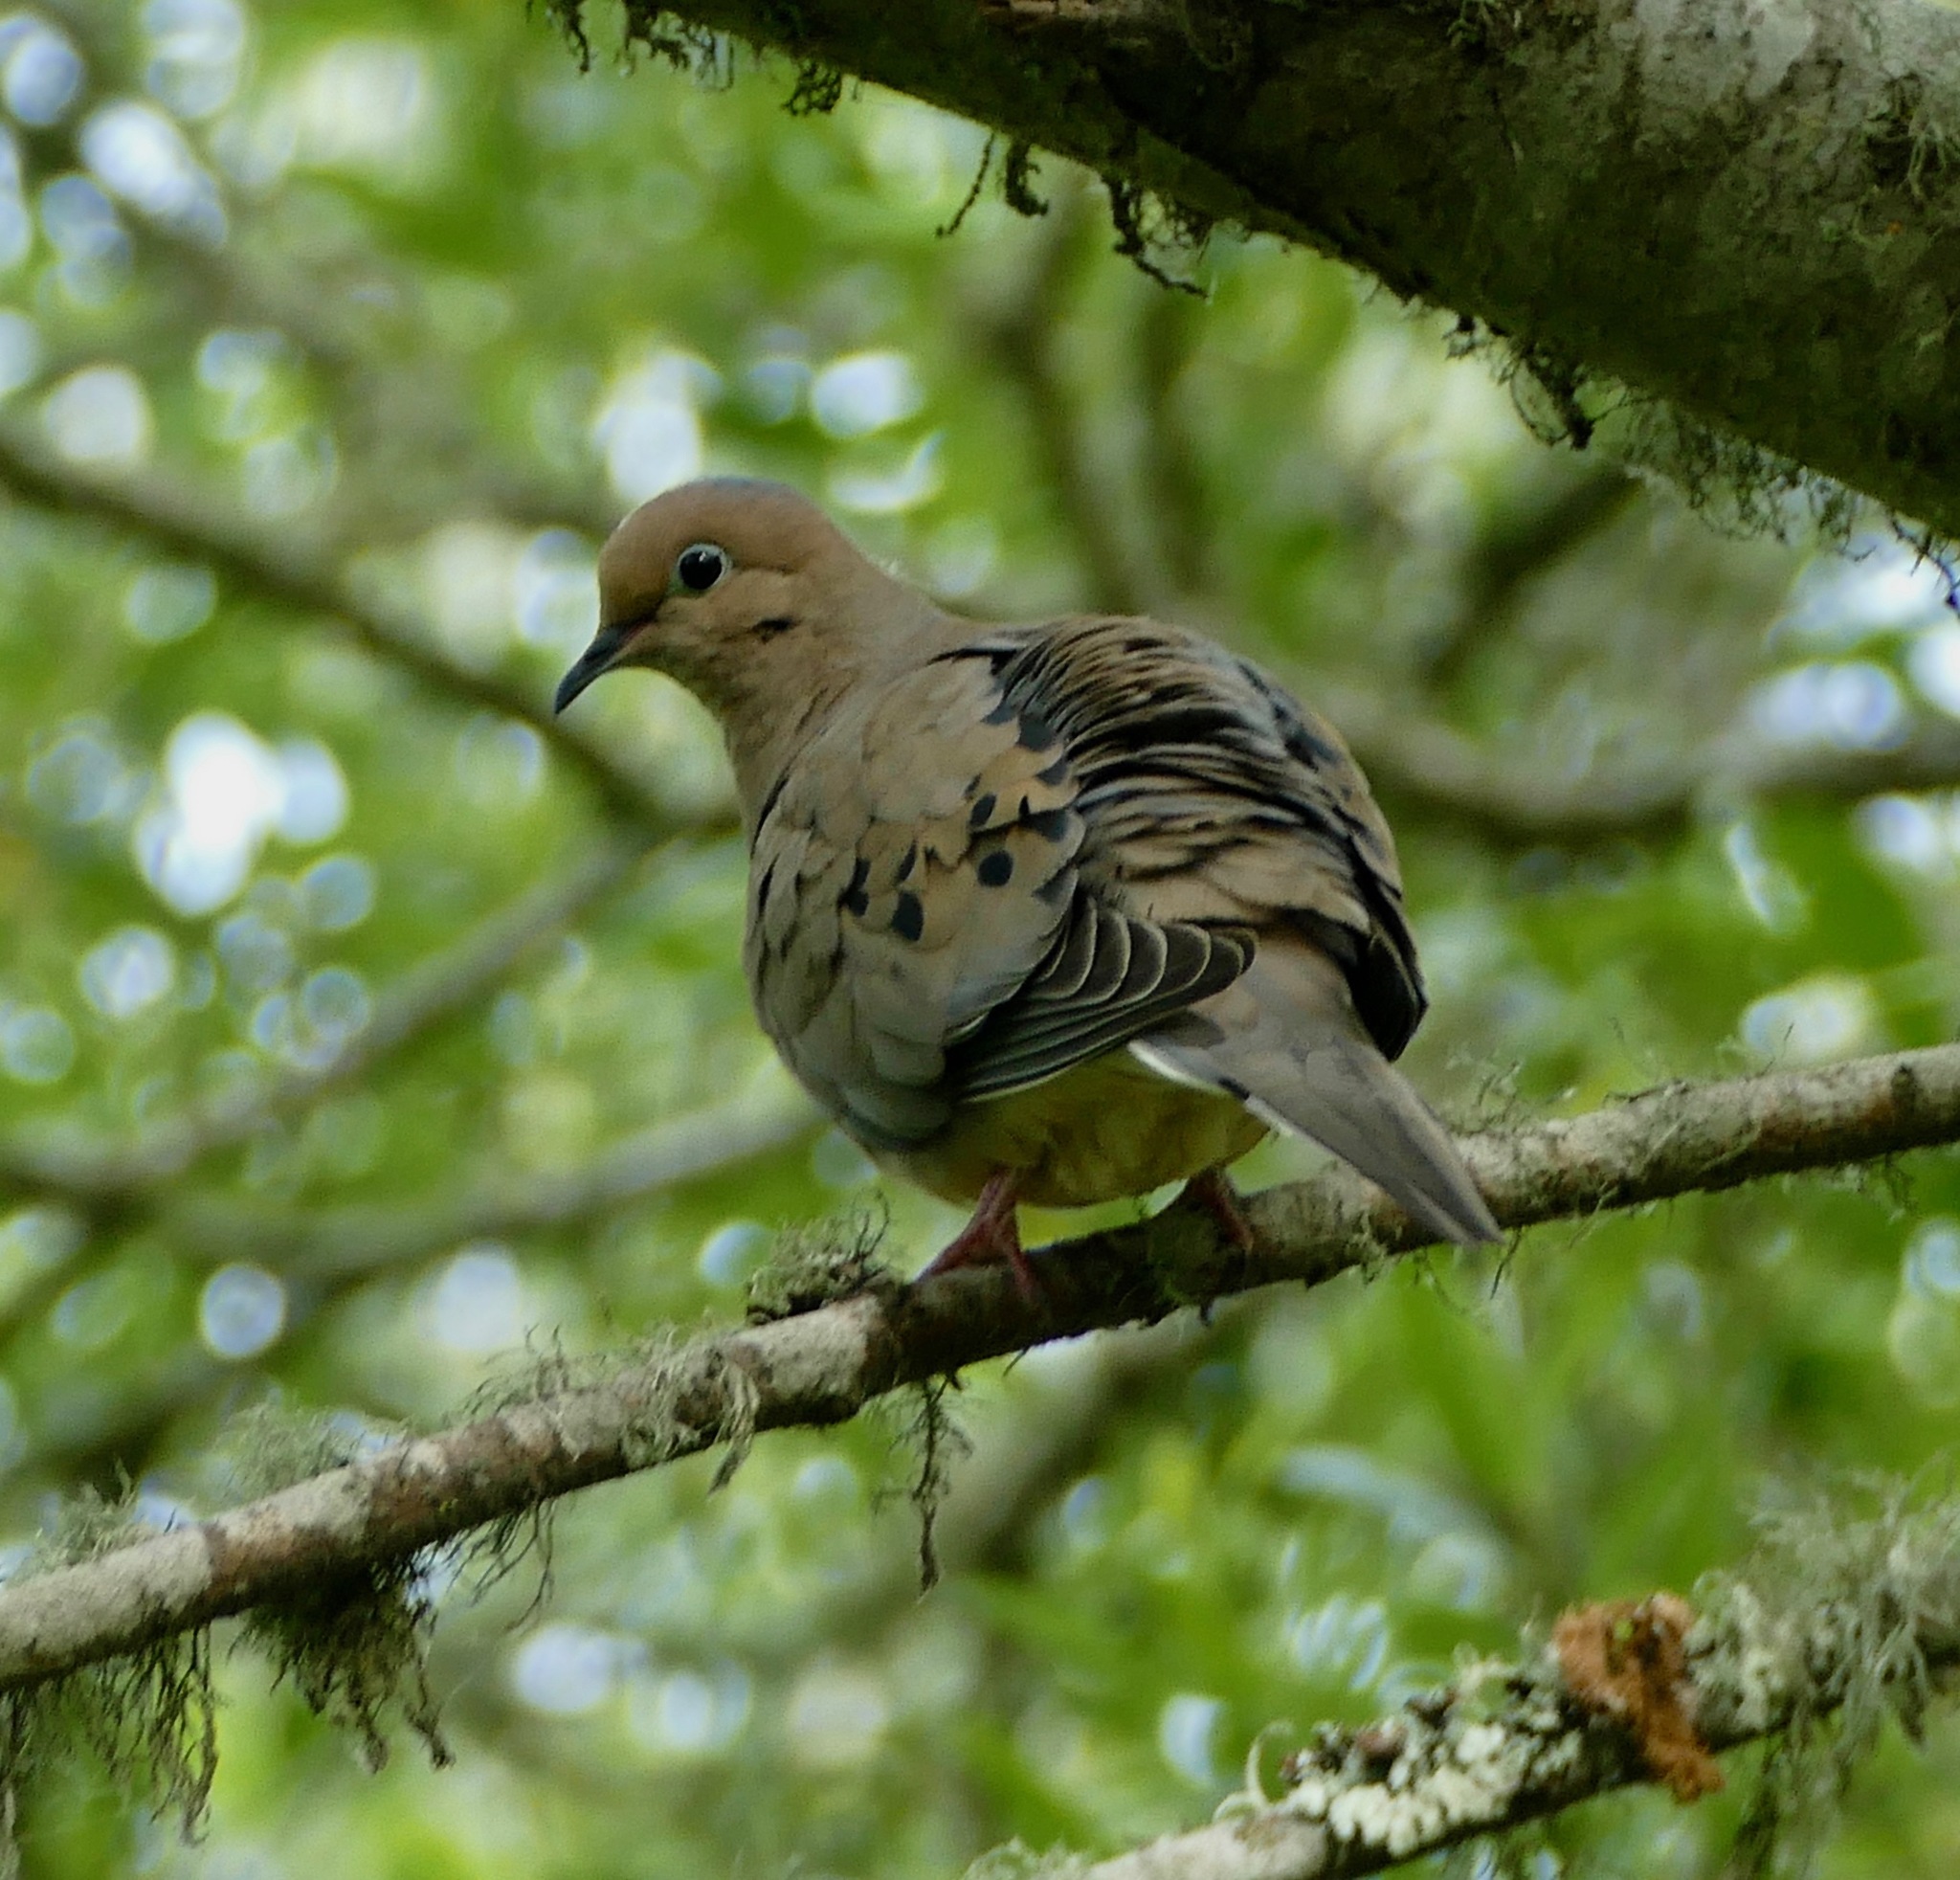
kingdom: Animalia
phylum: Chordata
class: Aves
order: Columbiformes
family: Columbidae
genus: Zenaida
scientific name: Zenaida macroura
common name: Mourning dove
